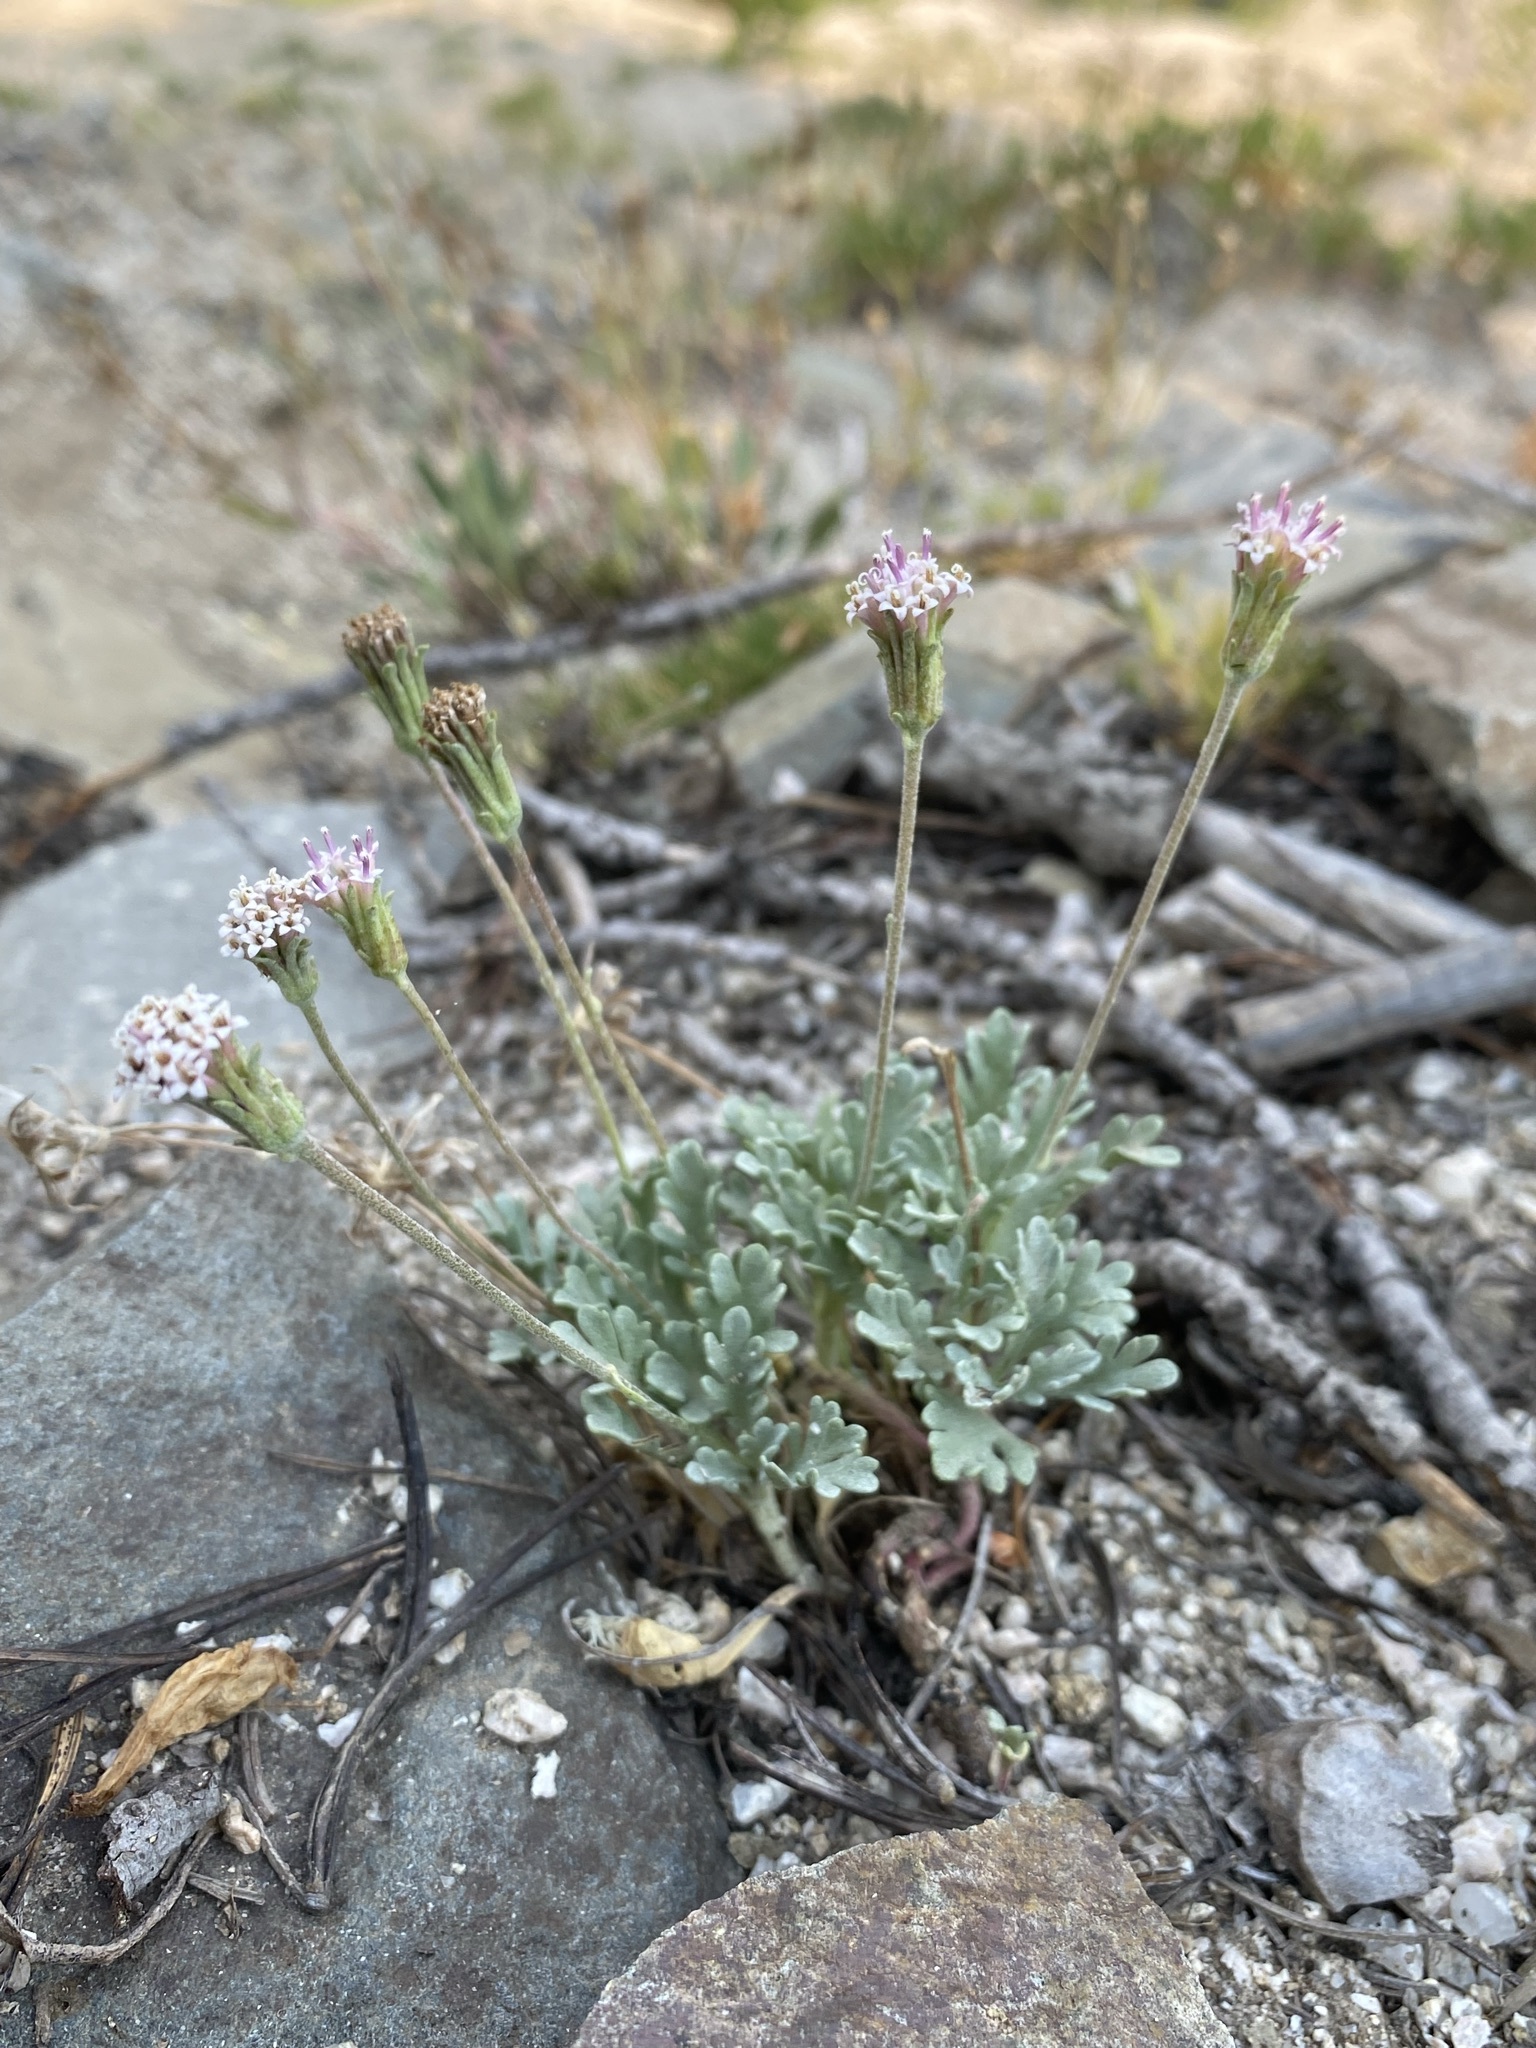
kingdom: Plantae
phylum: Tracheophyta
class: Magnoliopsida
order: Asterales
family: Asteraceae
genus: Chaenactis
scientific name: Chaenactis evermannii
